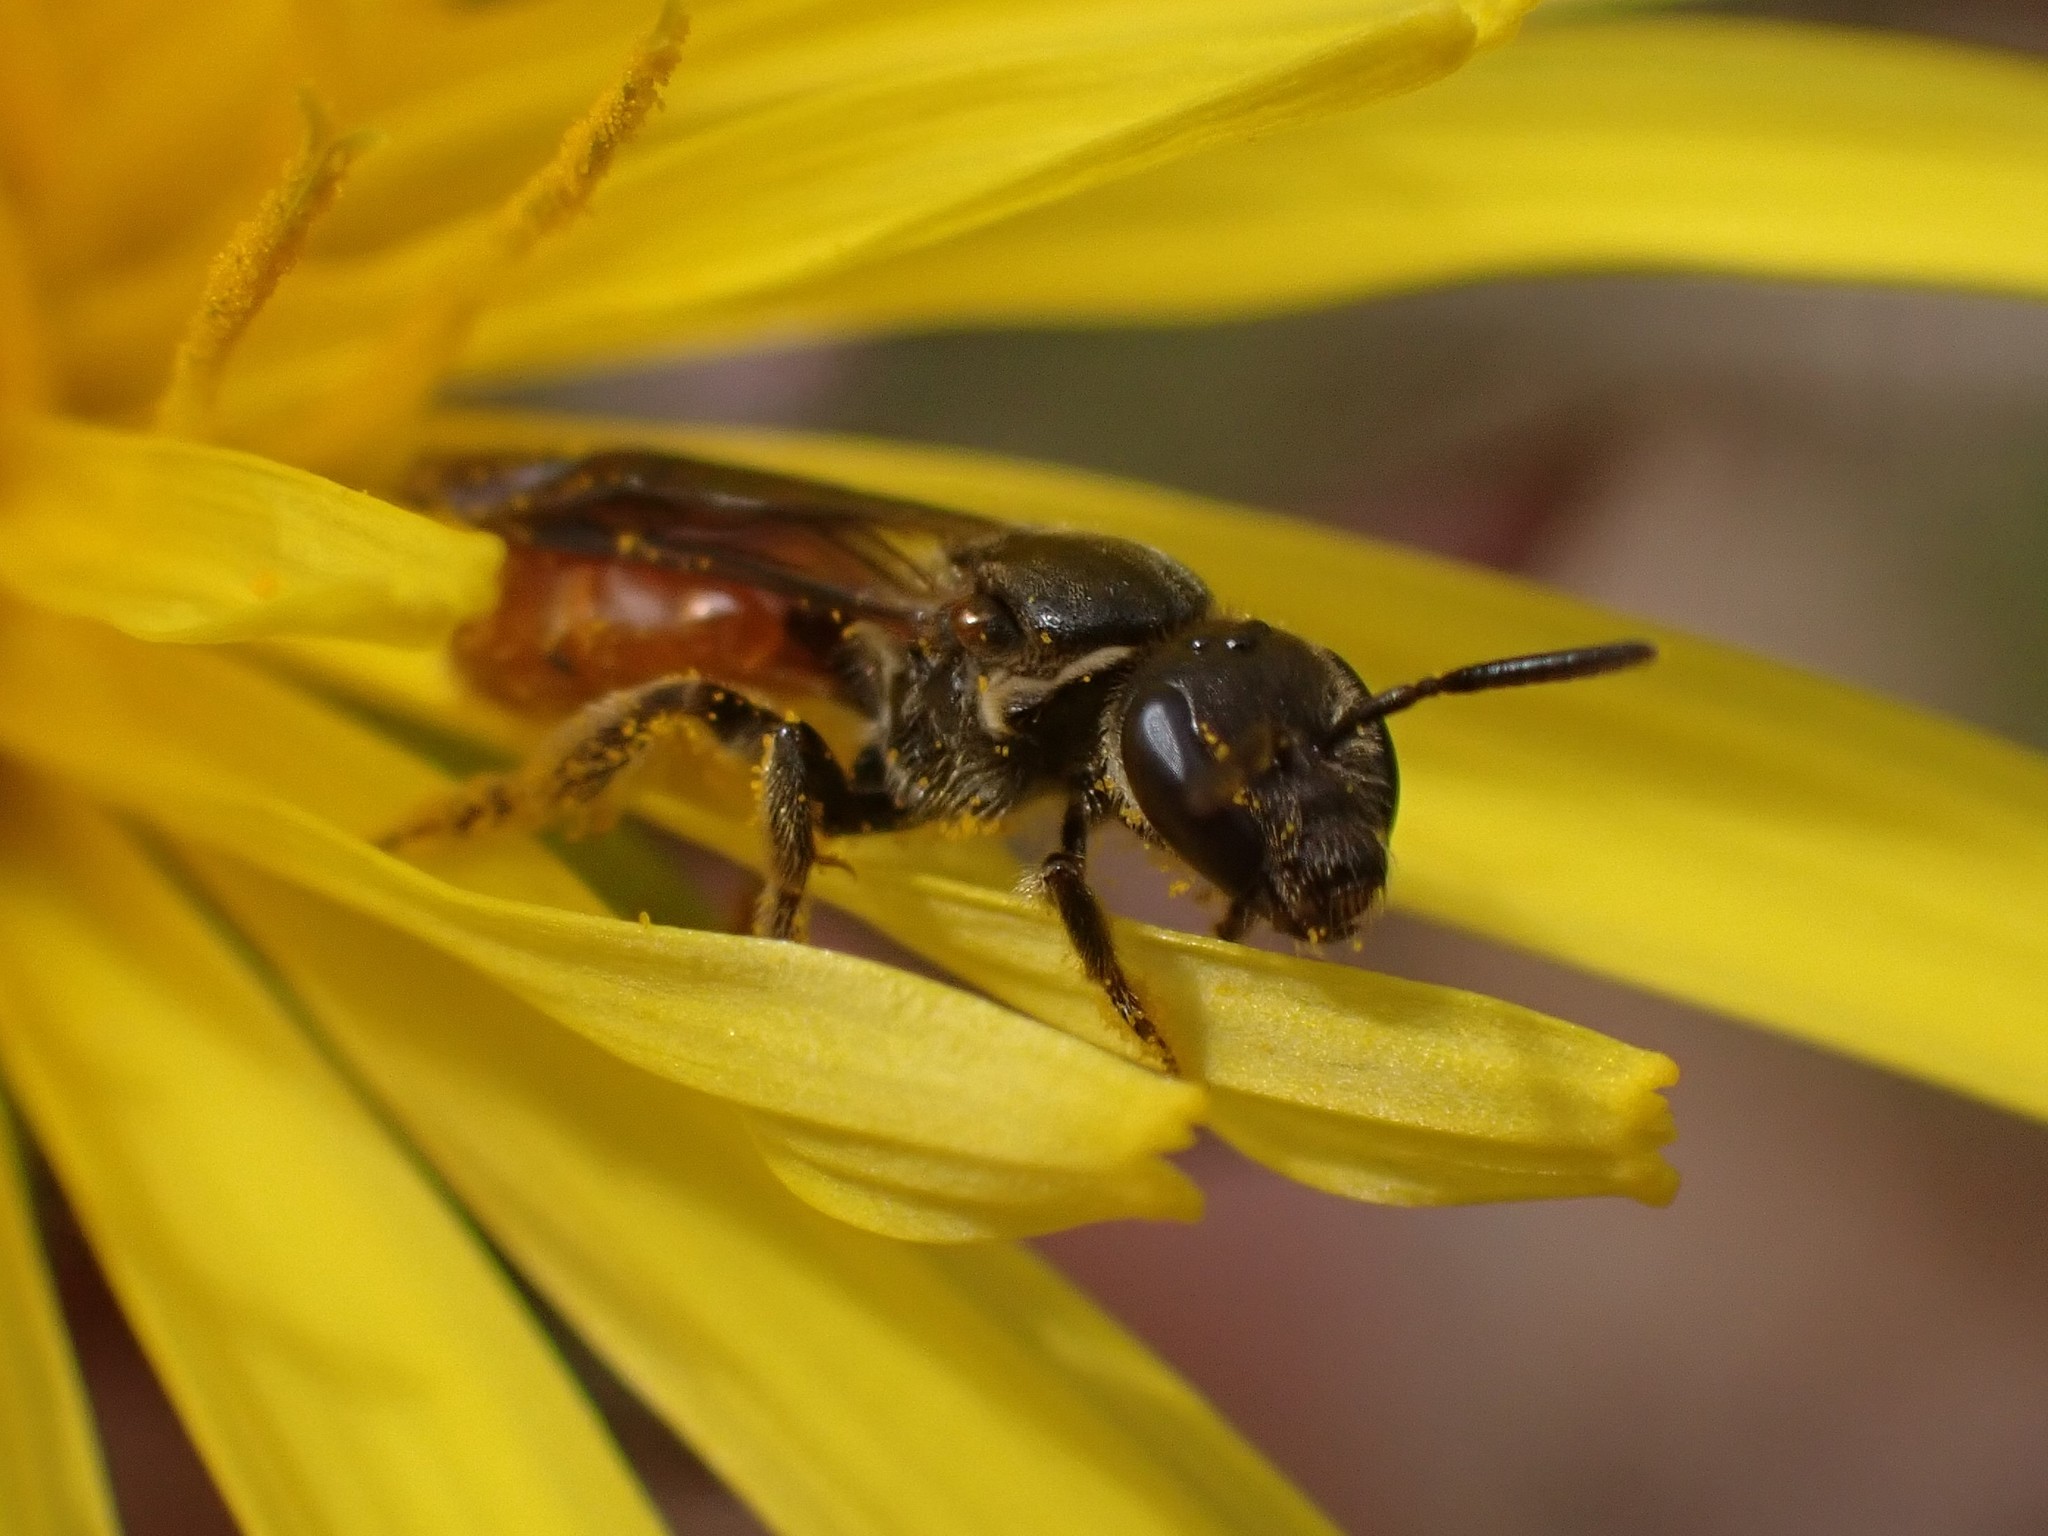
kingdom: Animalia
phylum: Arthropoda
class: Insecta
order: Hymenoptera
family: Halictidae
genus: Lasioglossum
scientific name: Lasioglossum ovaliceps
